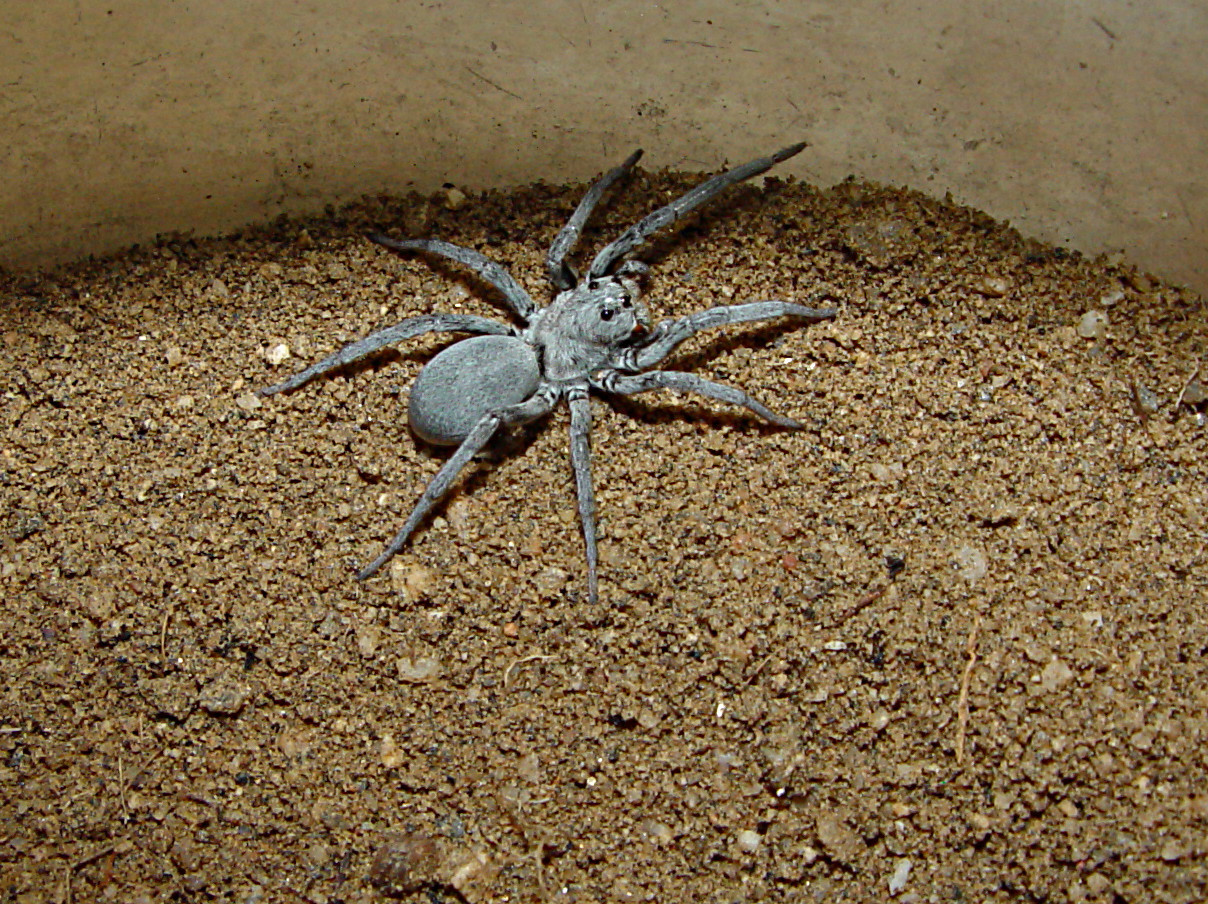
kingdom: Animalia
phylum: Arthropoda
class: Arachnida
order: Araneae
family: Lycosidae
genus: Geolycosa
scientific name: Geolycosa gosoga
